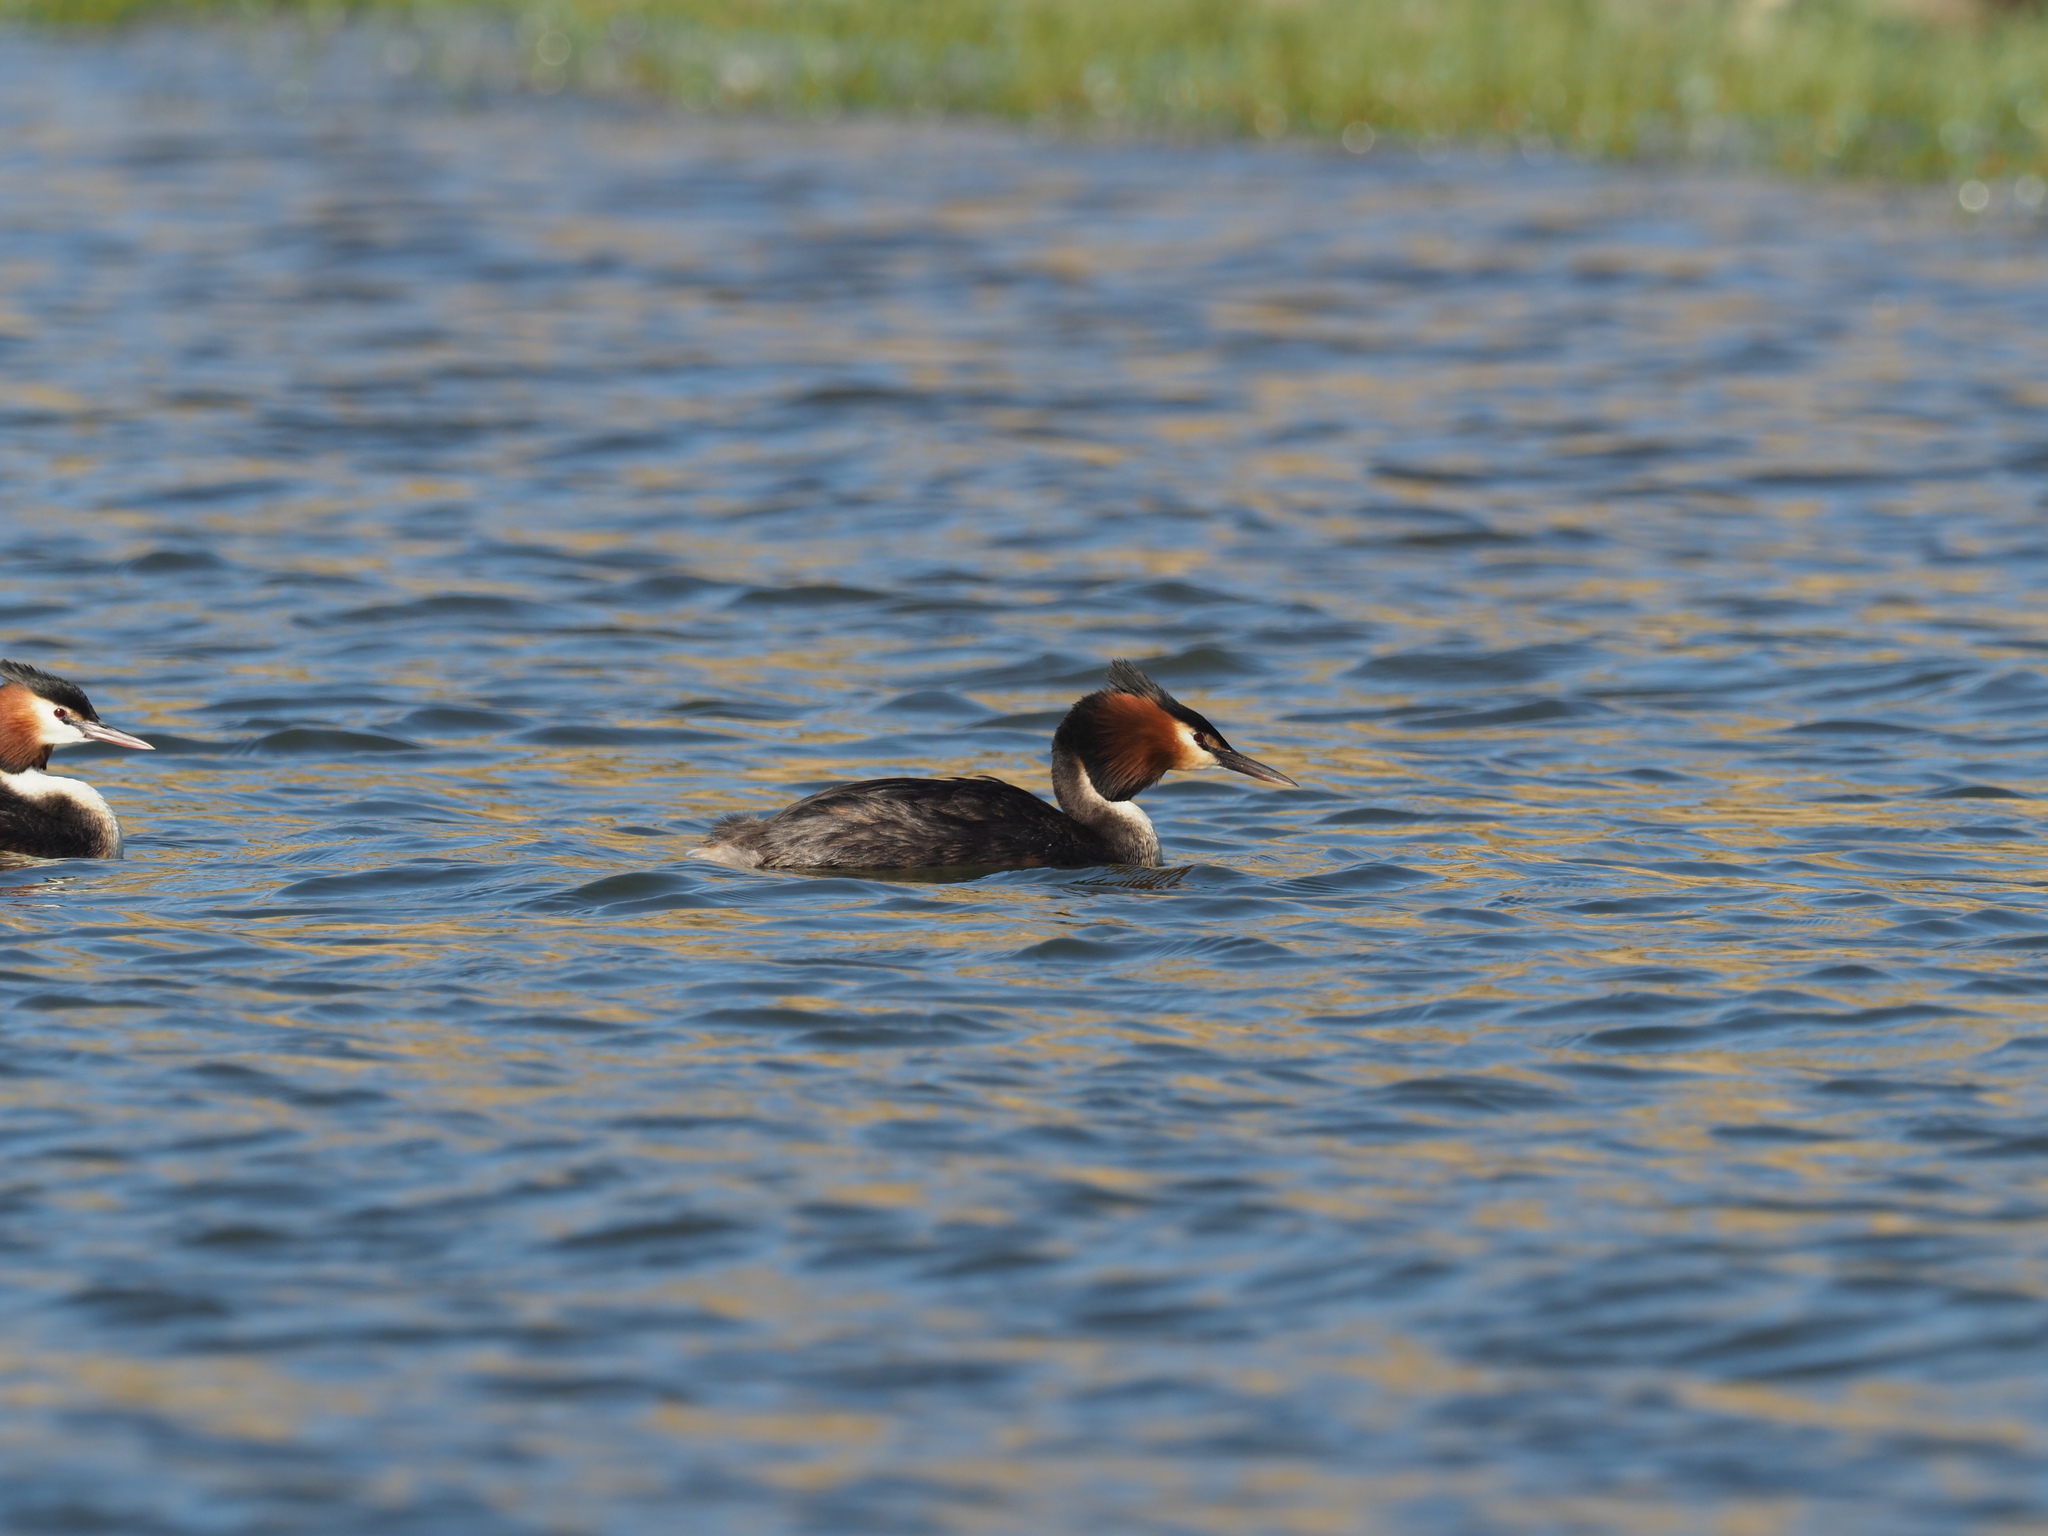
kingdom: Animalia
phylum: Chordata
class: Aves
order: Podicipediformes
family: Podicipedidae
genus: Podiceps
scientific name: Podiceps cristatus
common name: Great crested grebe
